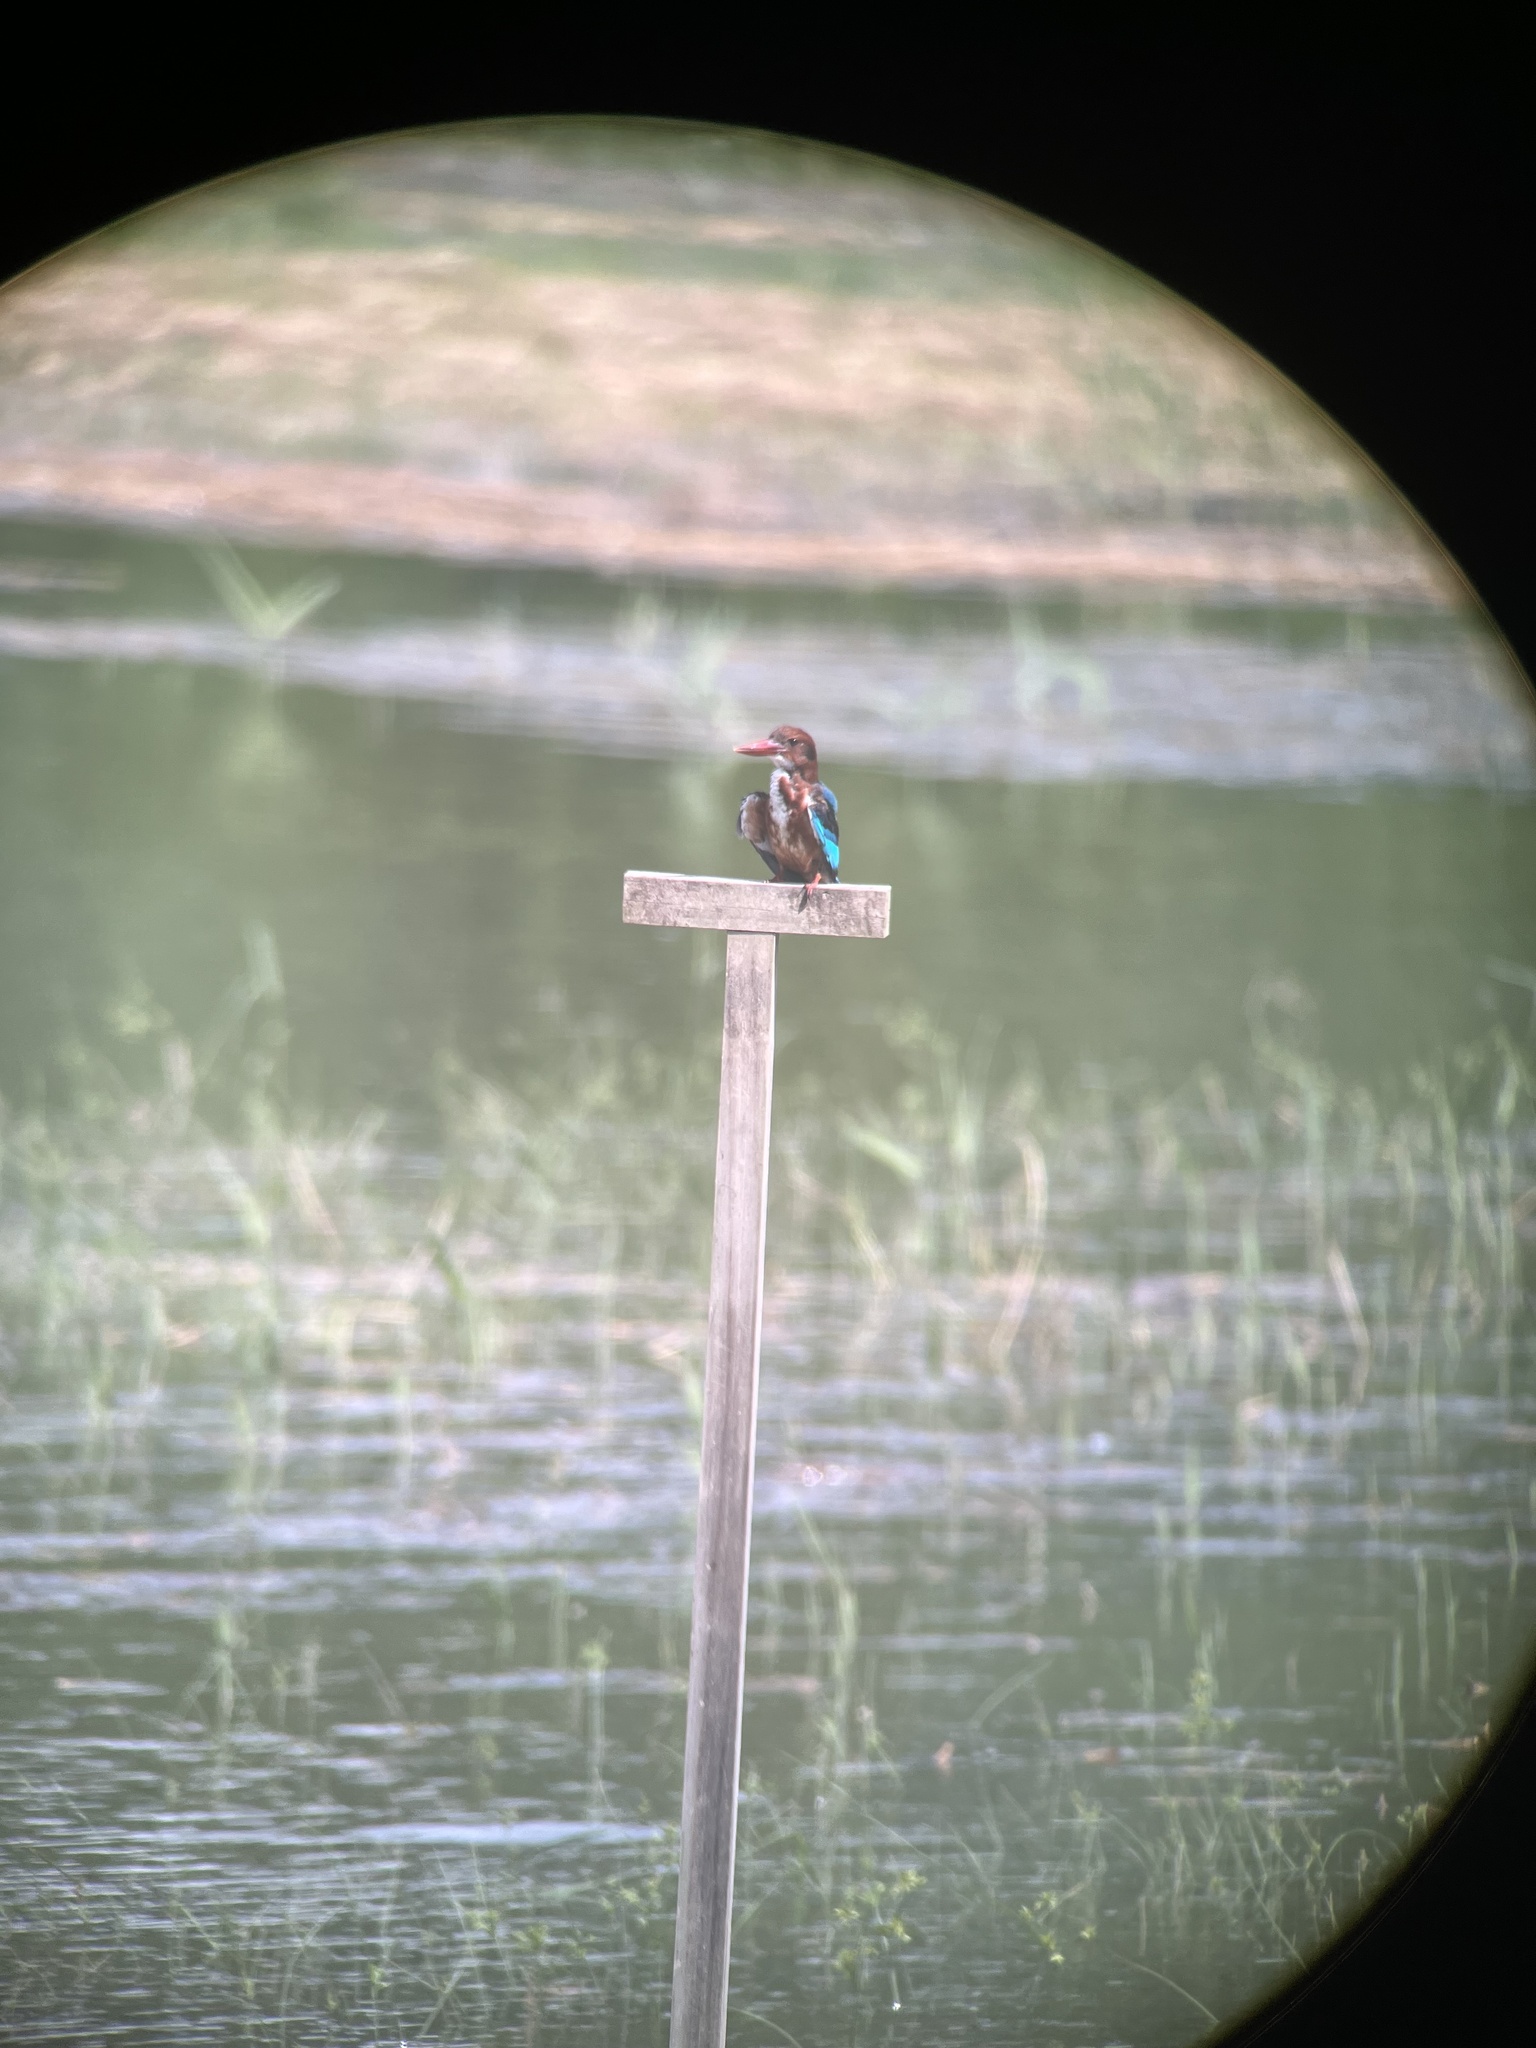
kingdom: Animalia
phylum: Chordata
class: Aves
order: Coraciiformes
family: Alcedinidae
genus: Halcyon
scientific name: Halcyon smyrnensis
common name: White-throated kingfisher
